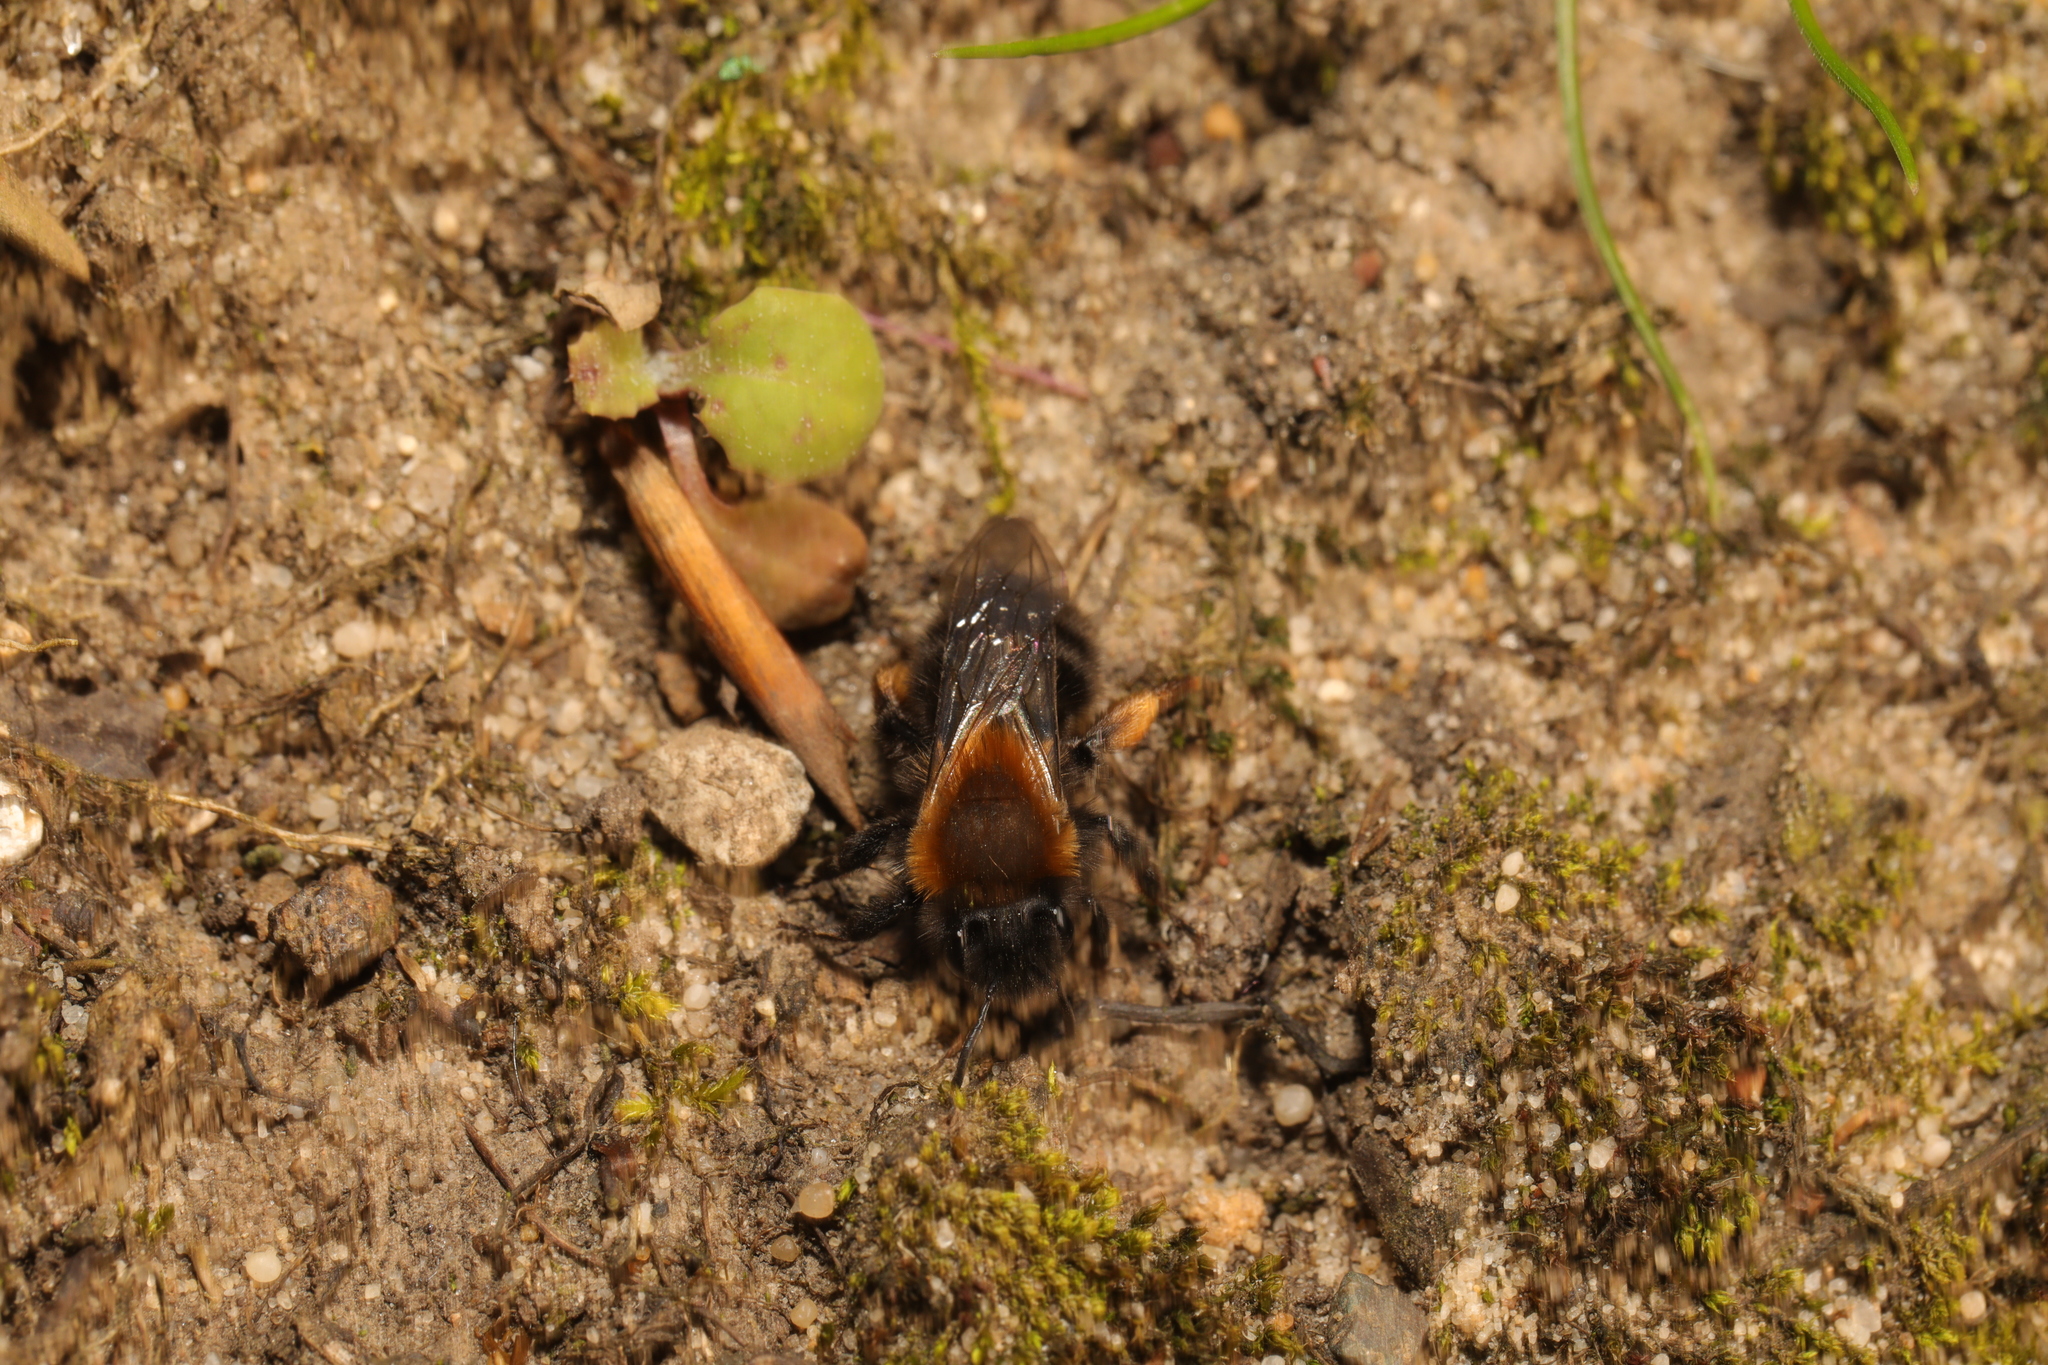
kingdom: Animalia
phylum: Arthropoda
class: Insecta
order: Hymenoptera
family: Andrenidae
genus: Andrena
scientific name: Andrena clarkella
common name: Clarke's mining bee
